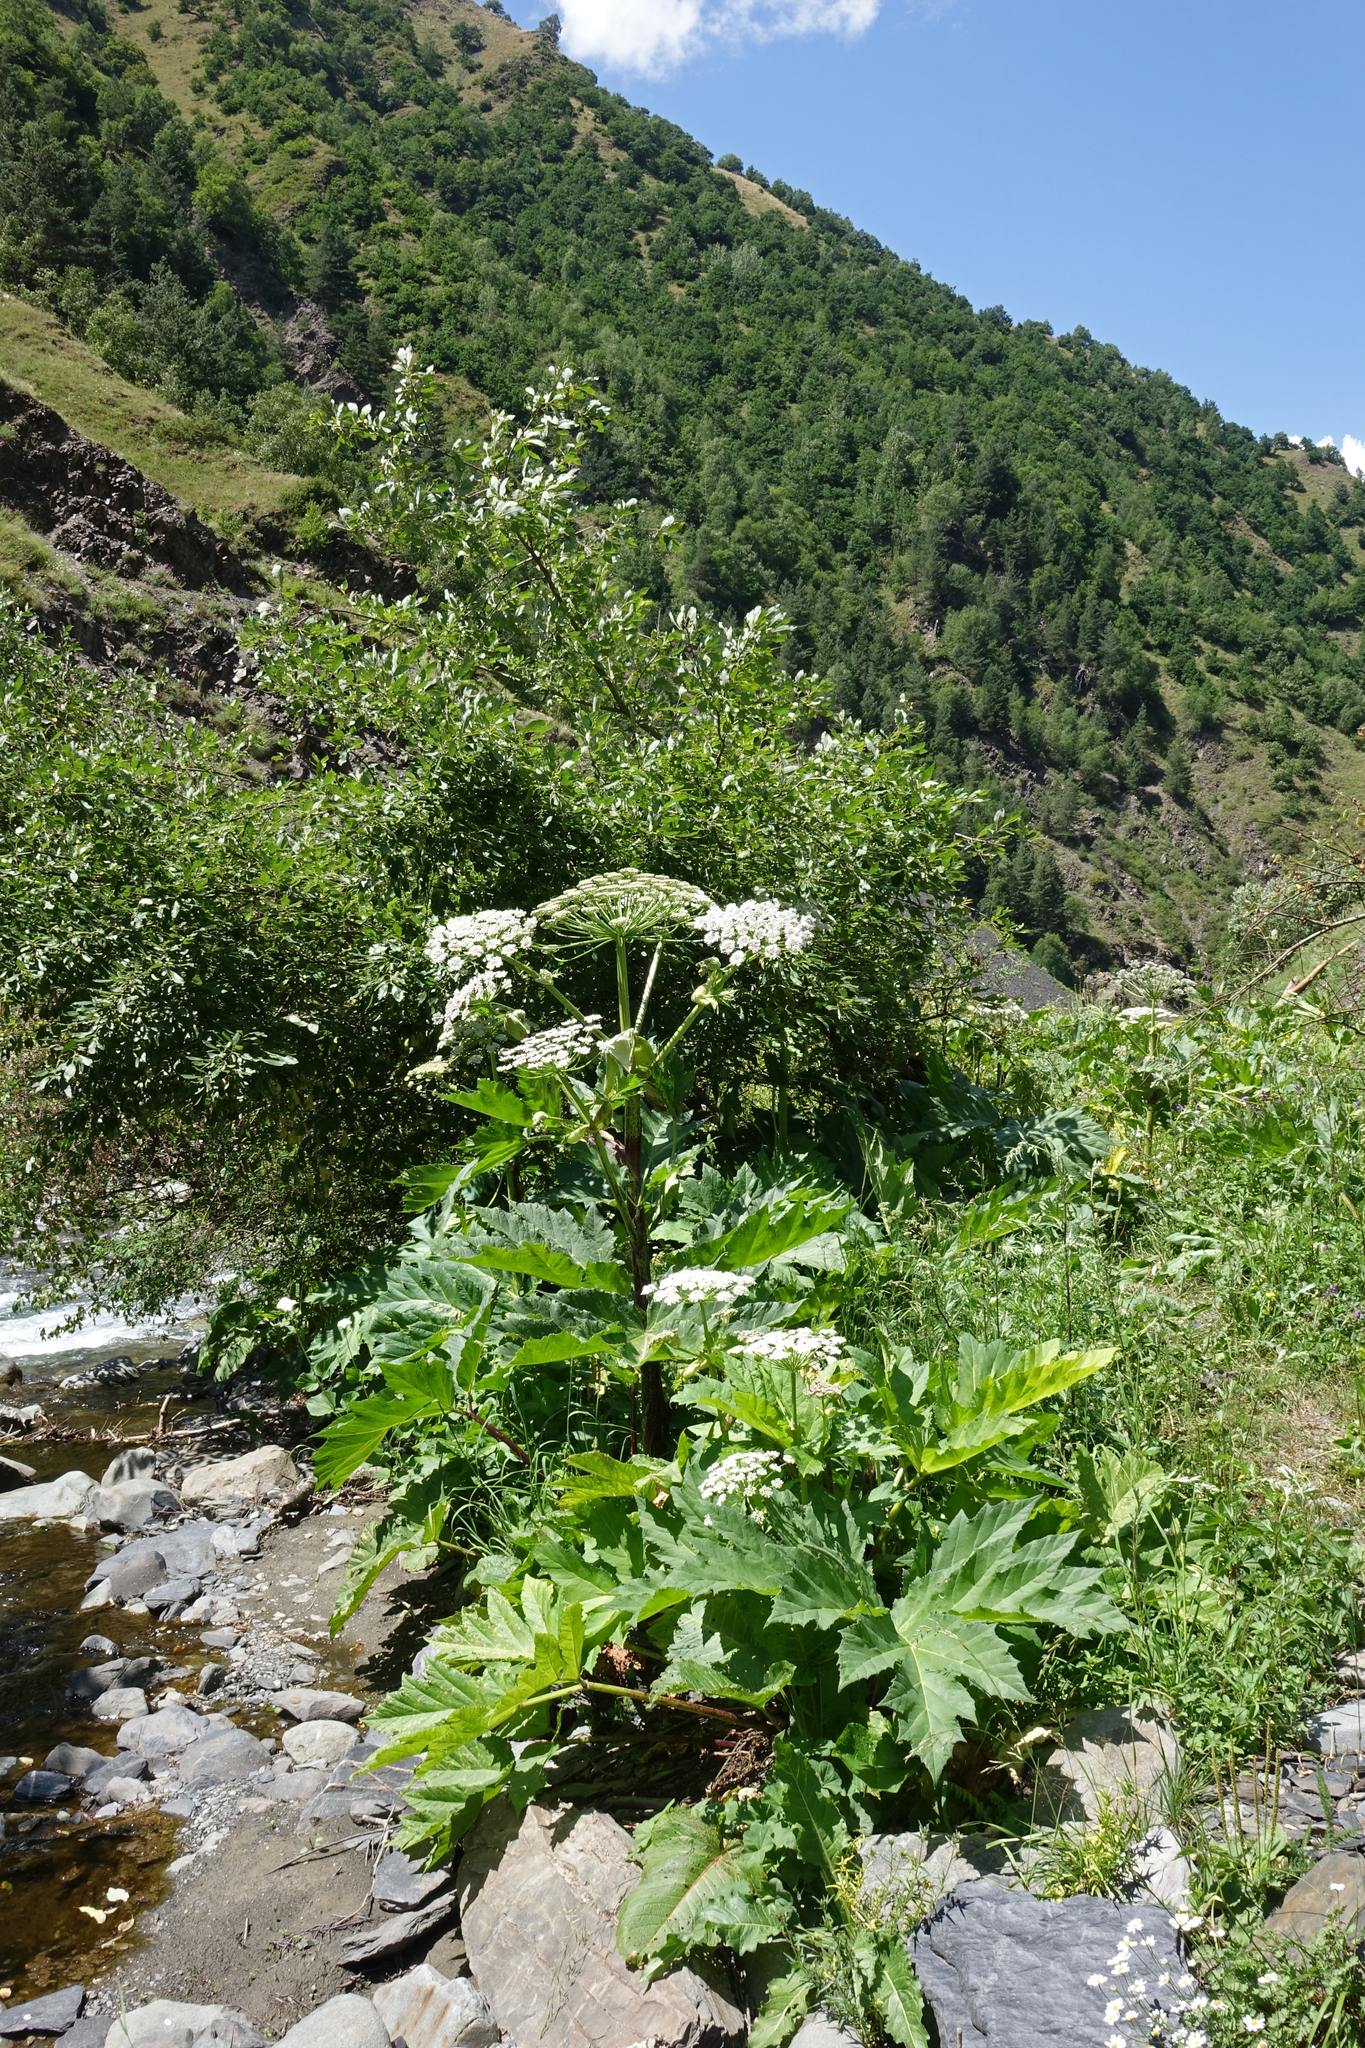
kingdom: Plantae
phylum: Tracheophyta
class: Magnoliopsida
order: Apiales
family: Apiaceae
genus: Heracleum
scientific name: Heracleum sosnowskyi
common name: Sosnowsky's hogweed
